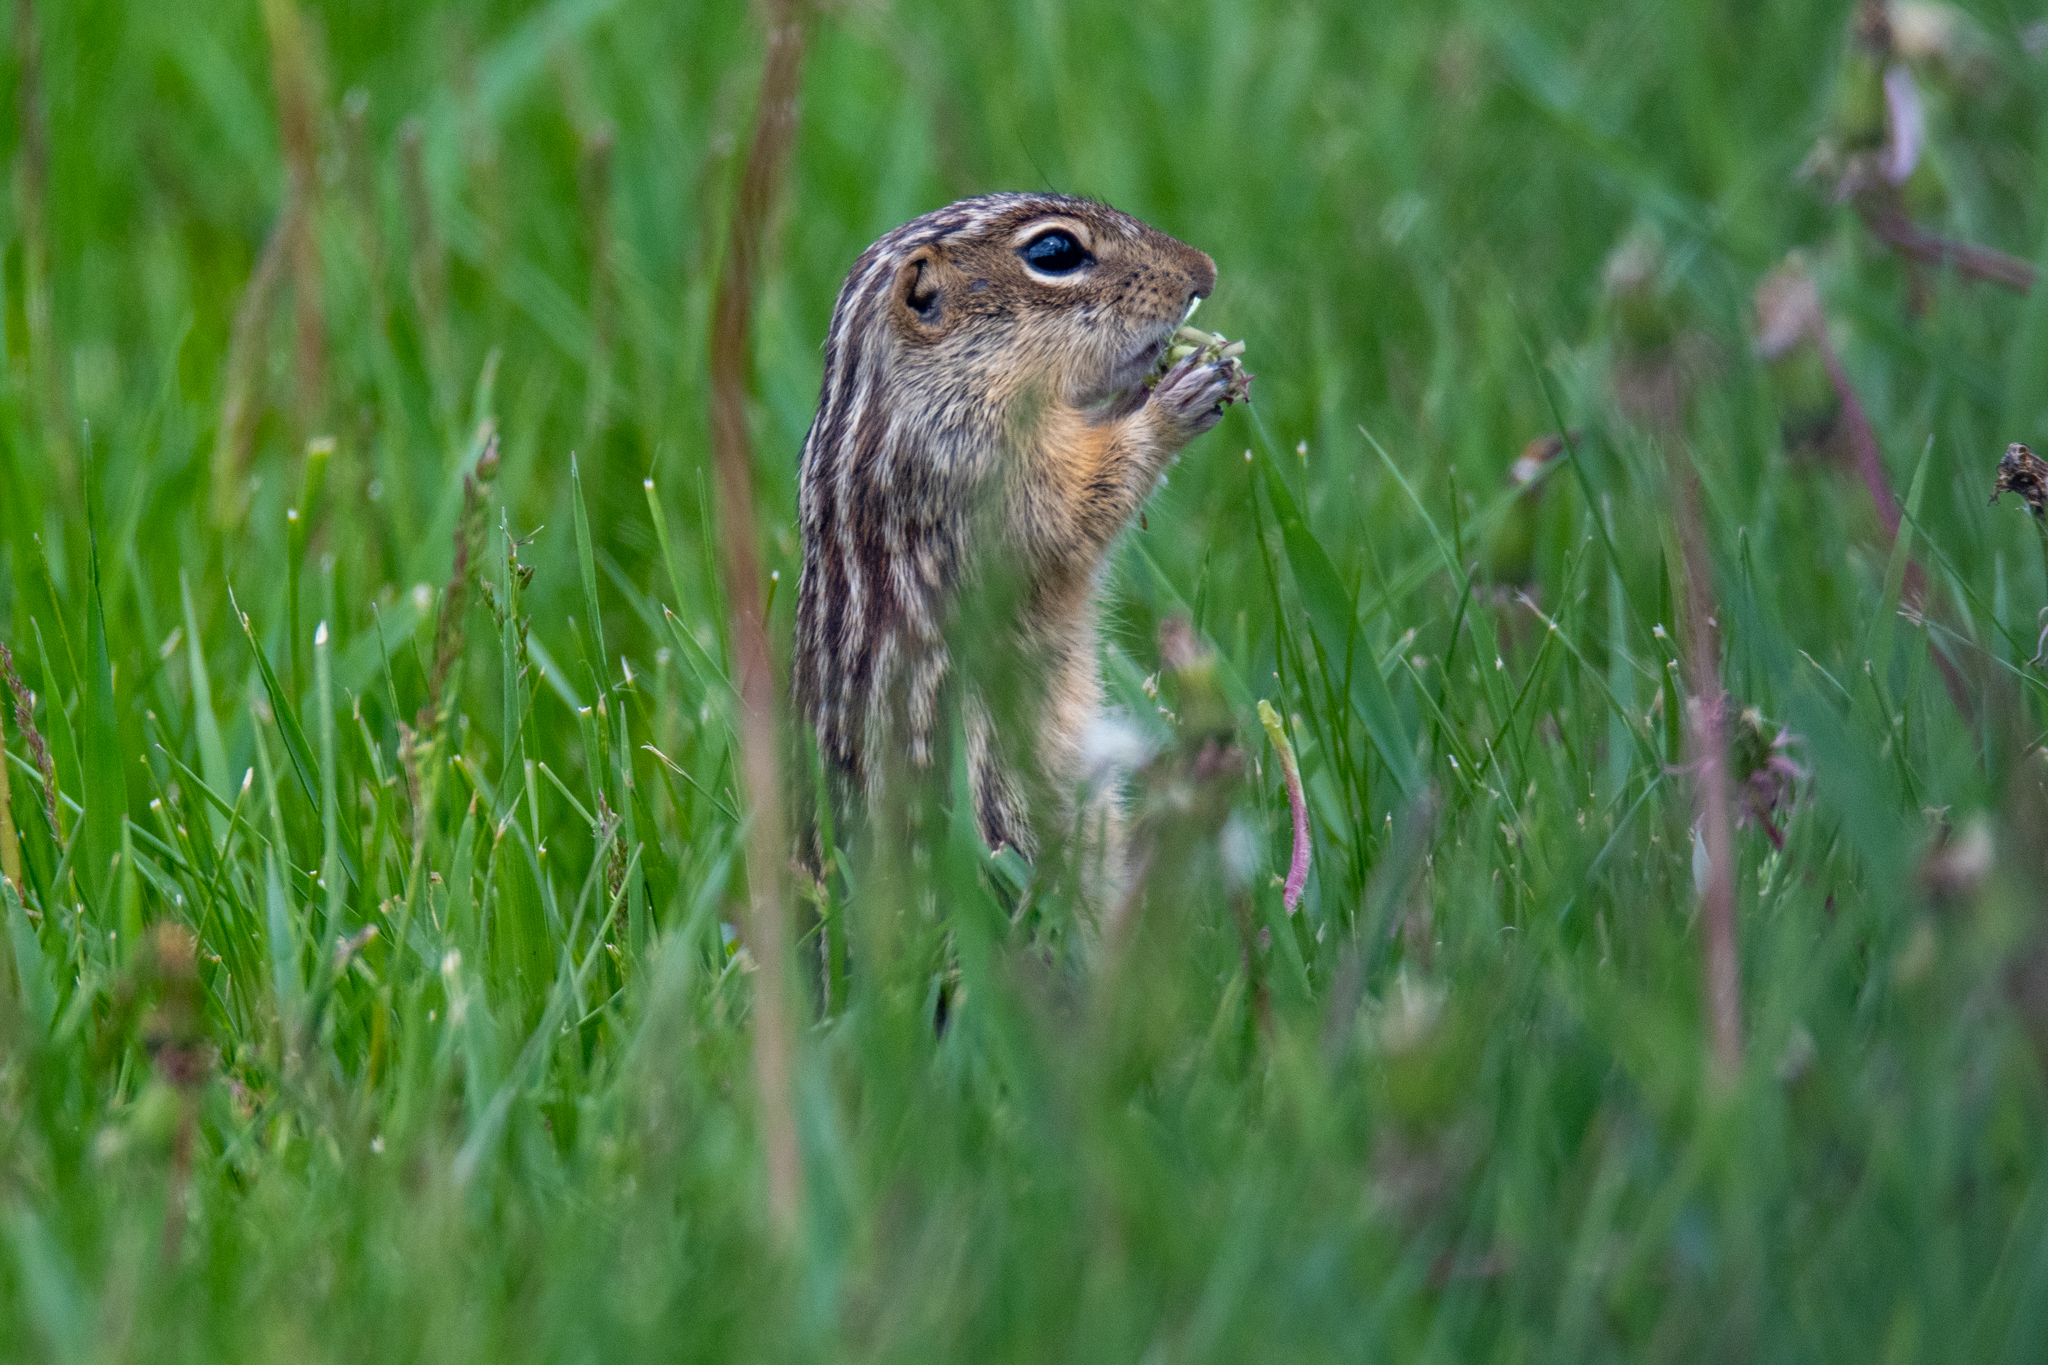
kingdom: Animalia
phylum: Chordata
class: Mammalia
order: Rodentia
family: Sciuridae
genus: Ictidomys
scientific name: Ictidomys tridecemlineatus
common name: Thirteen-lined ground squirrel
